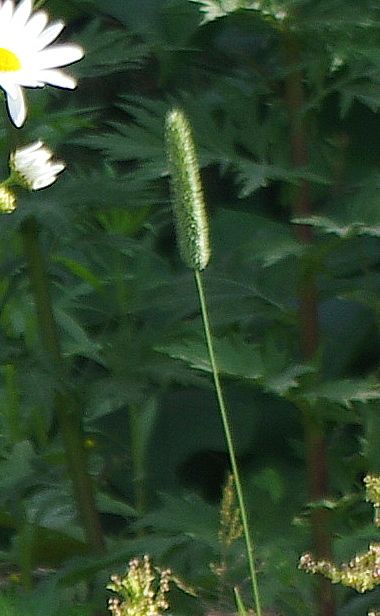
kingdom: Plantae
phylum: Tracheophyta
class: Liliopsida
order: Poales
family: Poaceae
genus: Phleum
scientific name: Phleum pratense
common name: Timothy grass
